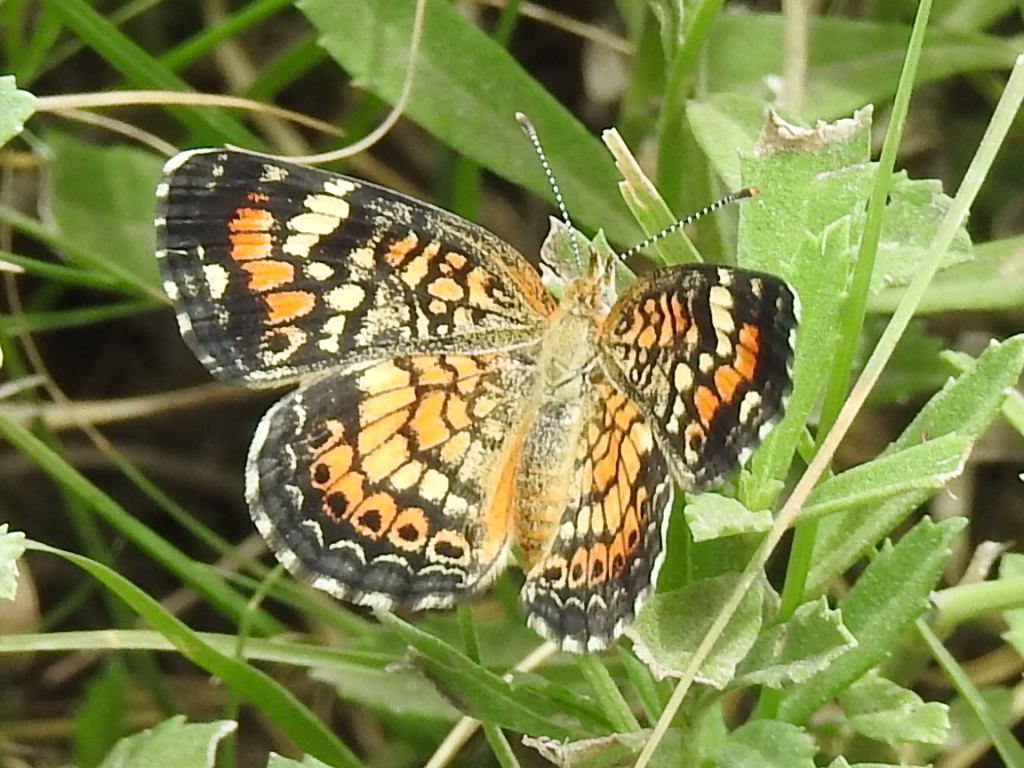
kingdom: Animalia
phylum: Arthropoda
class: Insecta
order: Lepidoptera
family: Nymphalidae
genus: Phyciodes
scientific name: Phyciodes phaon
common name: Phaon crescent
